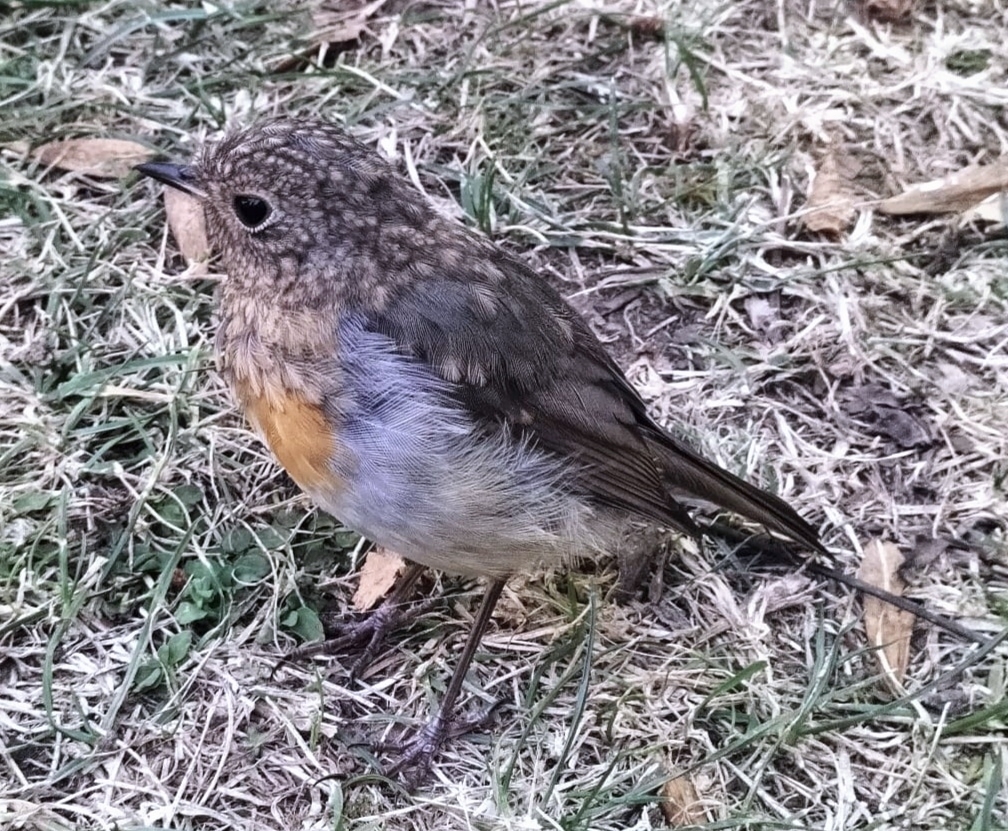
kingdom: Animalia
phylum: Chordata
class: Aves
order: Passeriformes
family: Muscicapidae
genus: Erithacus
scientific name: Erithacus rubecula
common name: European robin
